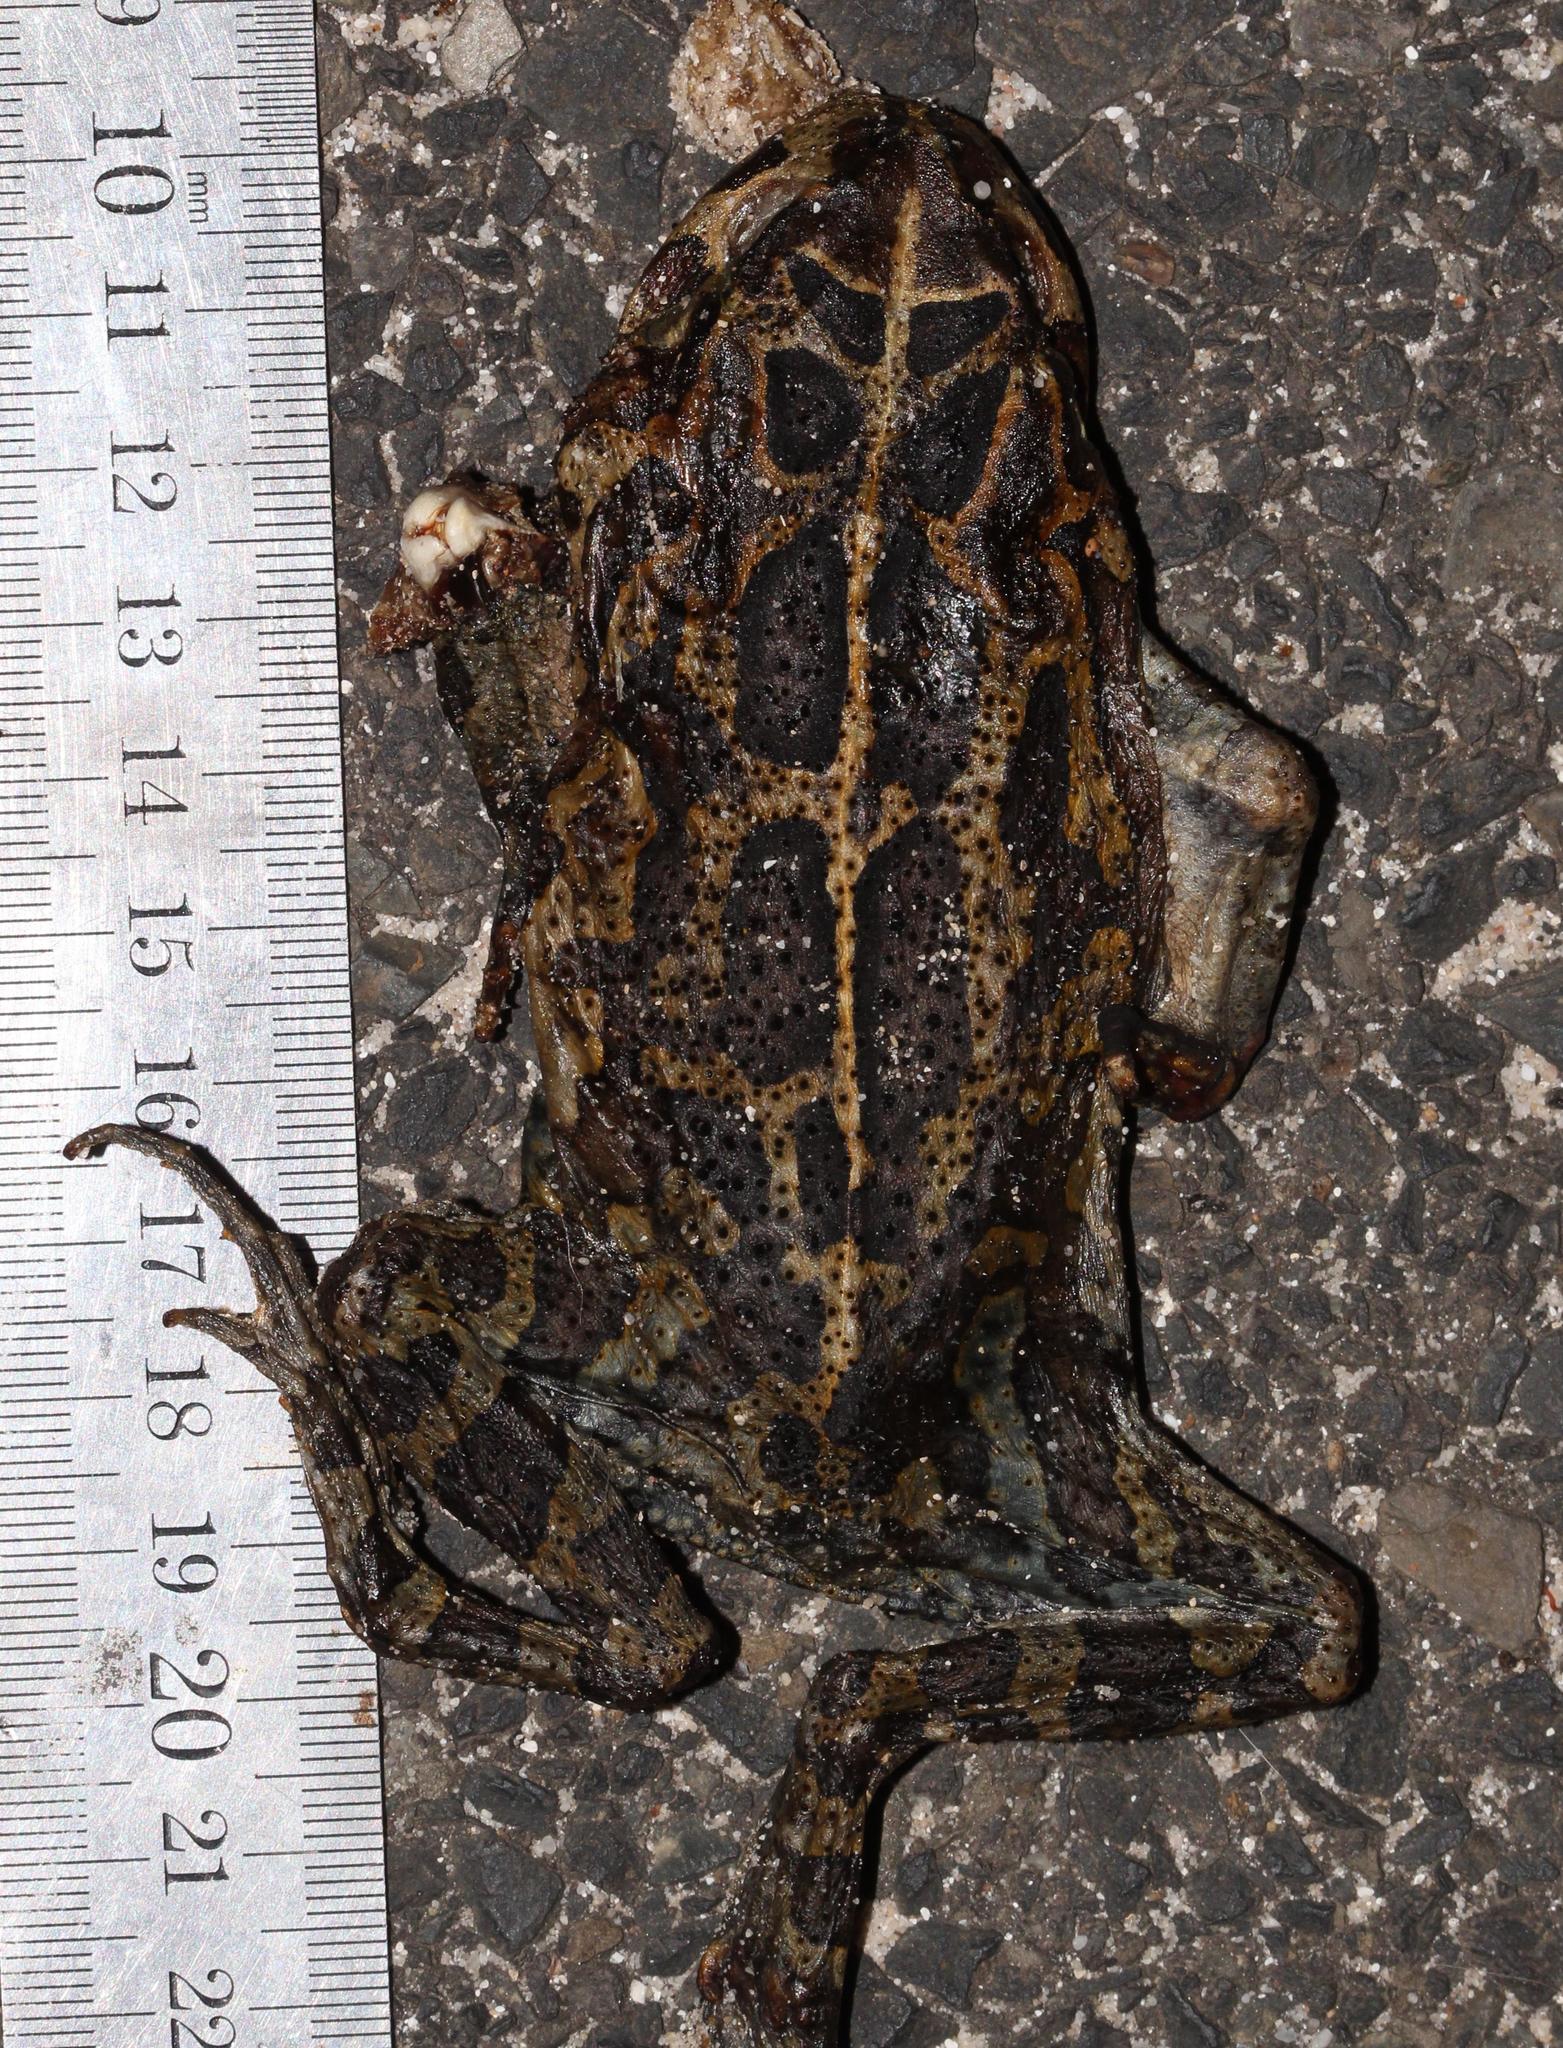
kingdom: Animalia
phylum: Chordata
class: Amphibia
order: Anura
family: Bufonidae
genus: Sclerophrys
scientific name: Sclerophrys pantherina
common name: Panther toad
